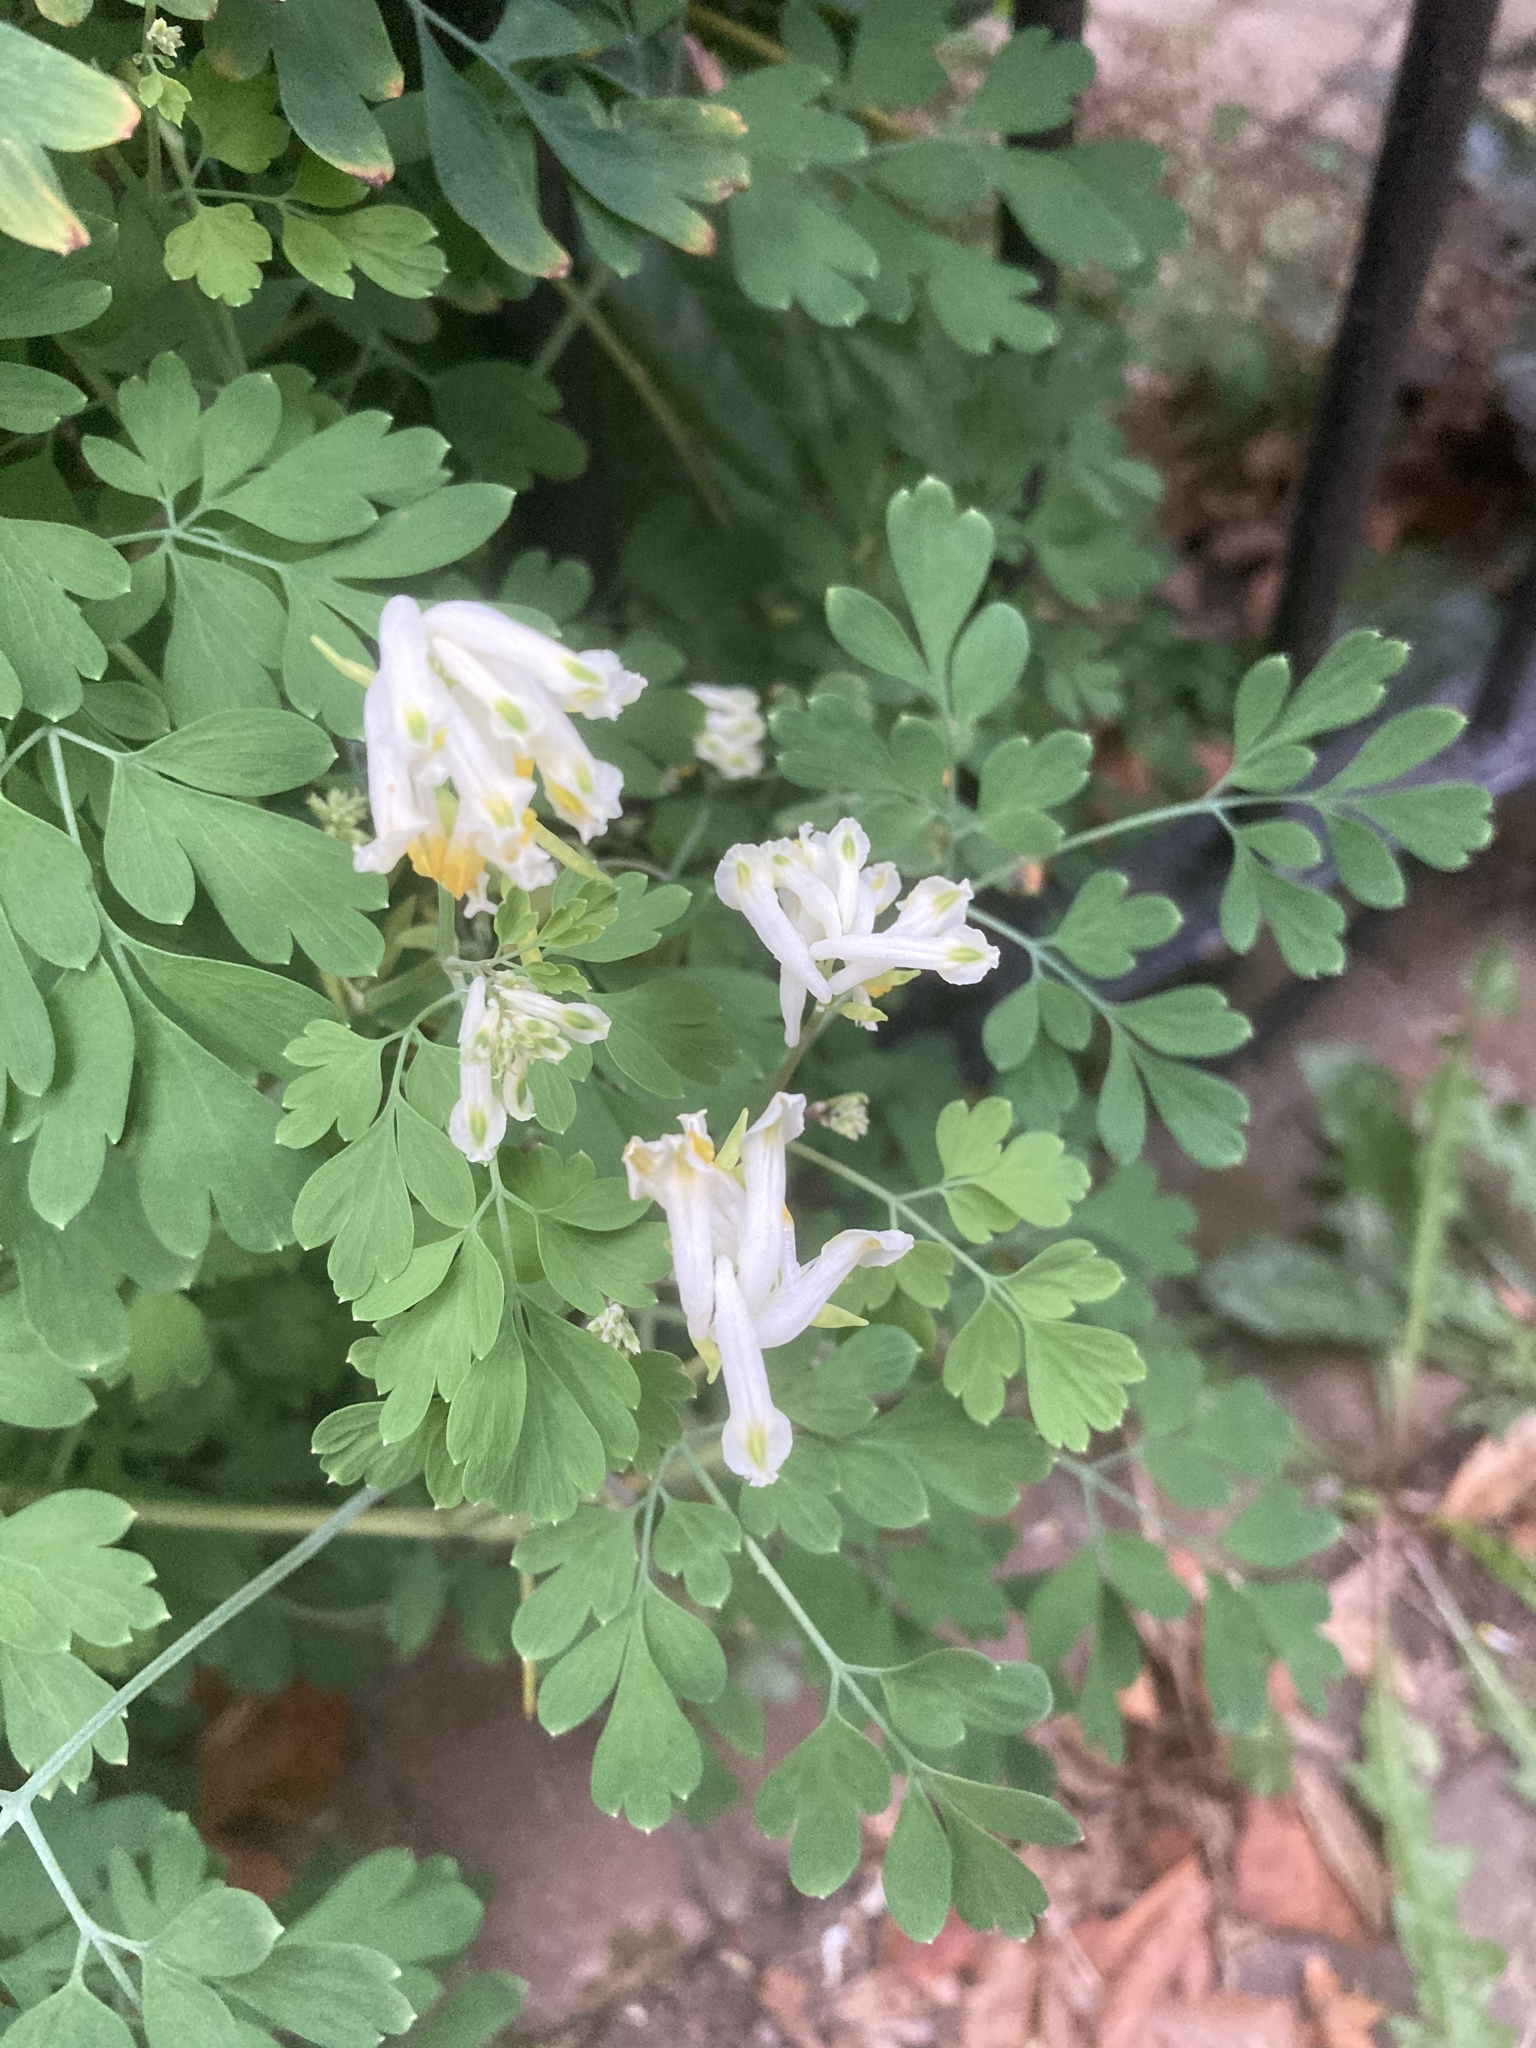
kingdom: Plantae
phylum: Tracheophyta
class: Magnoliopsida
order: Ranunculales
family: Papaveraceae
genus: Pseudofumaria
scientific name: Pseudofumaria alba
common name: Pale corydalis
